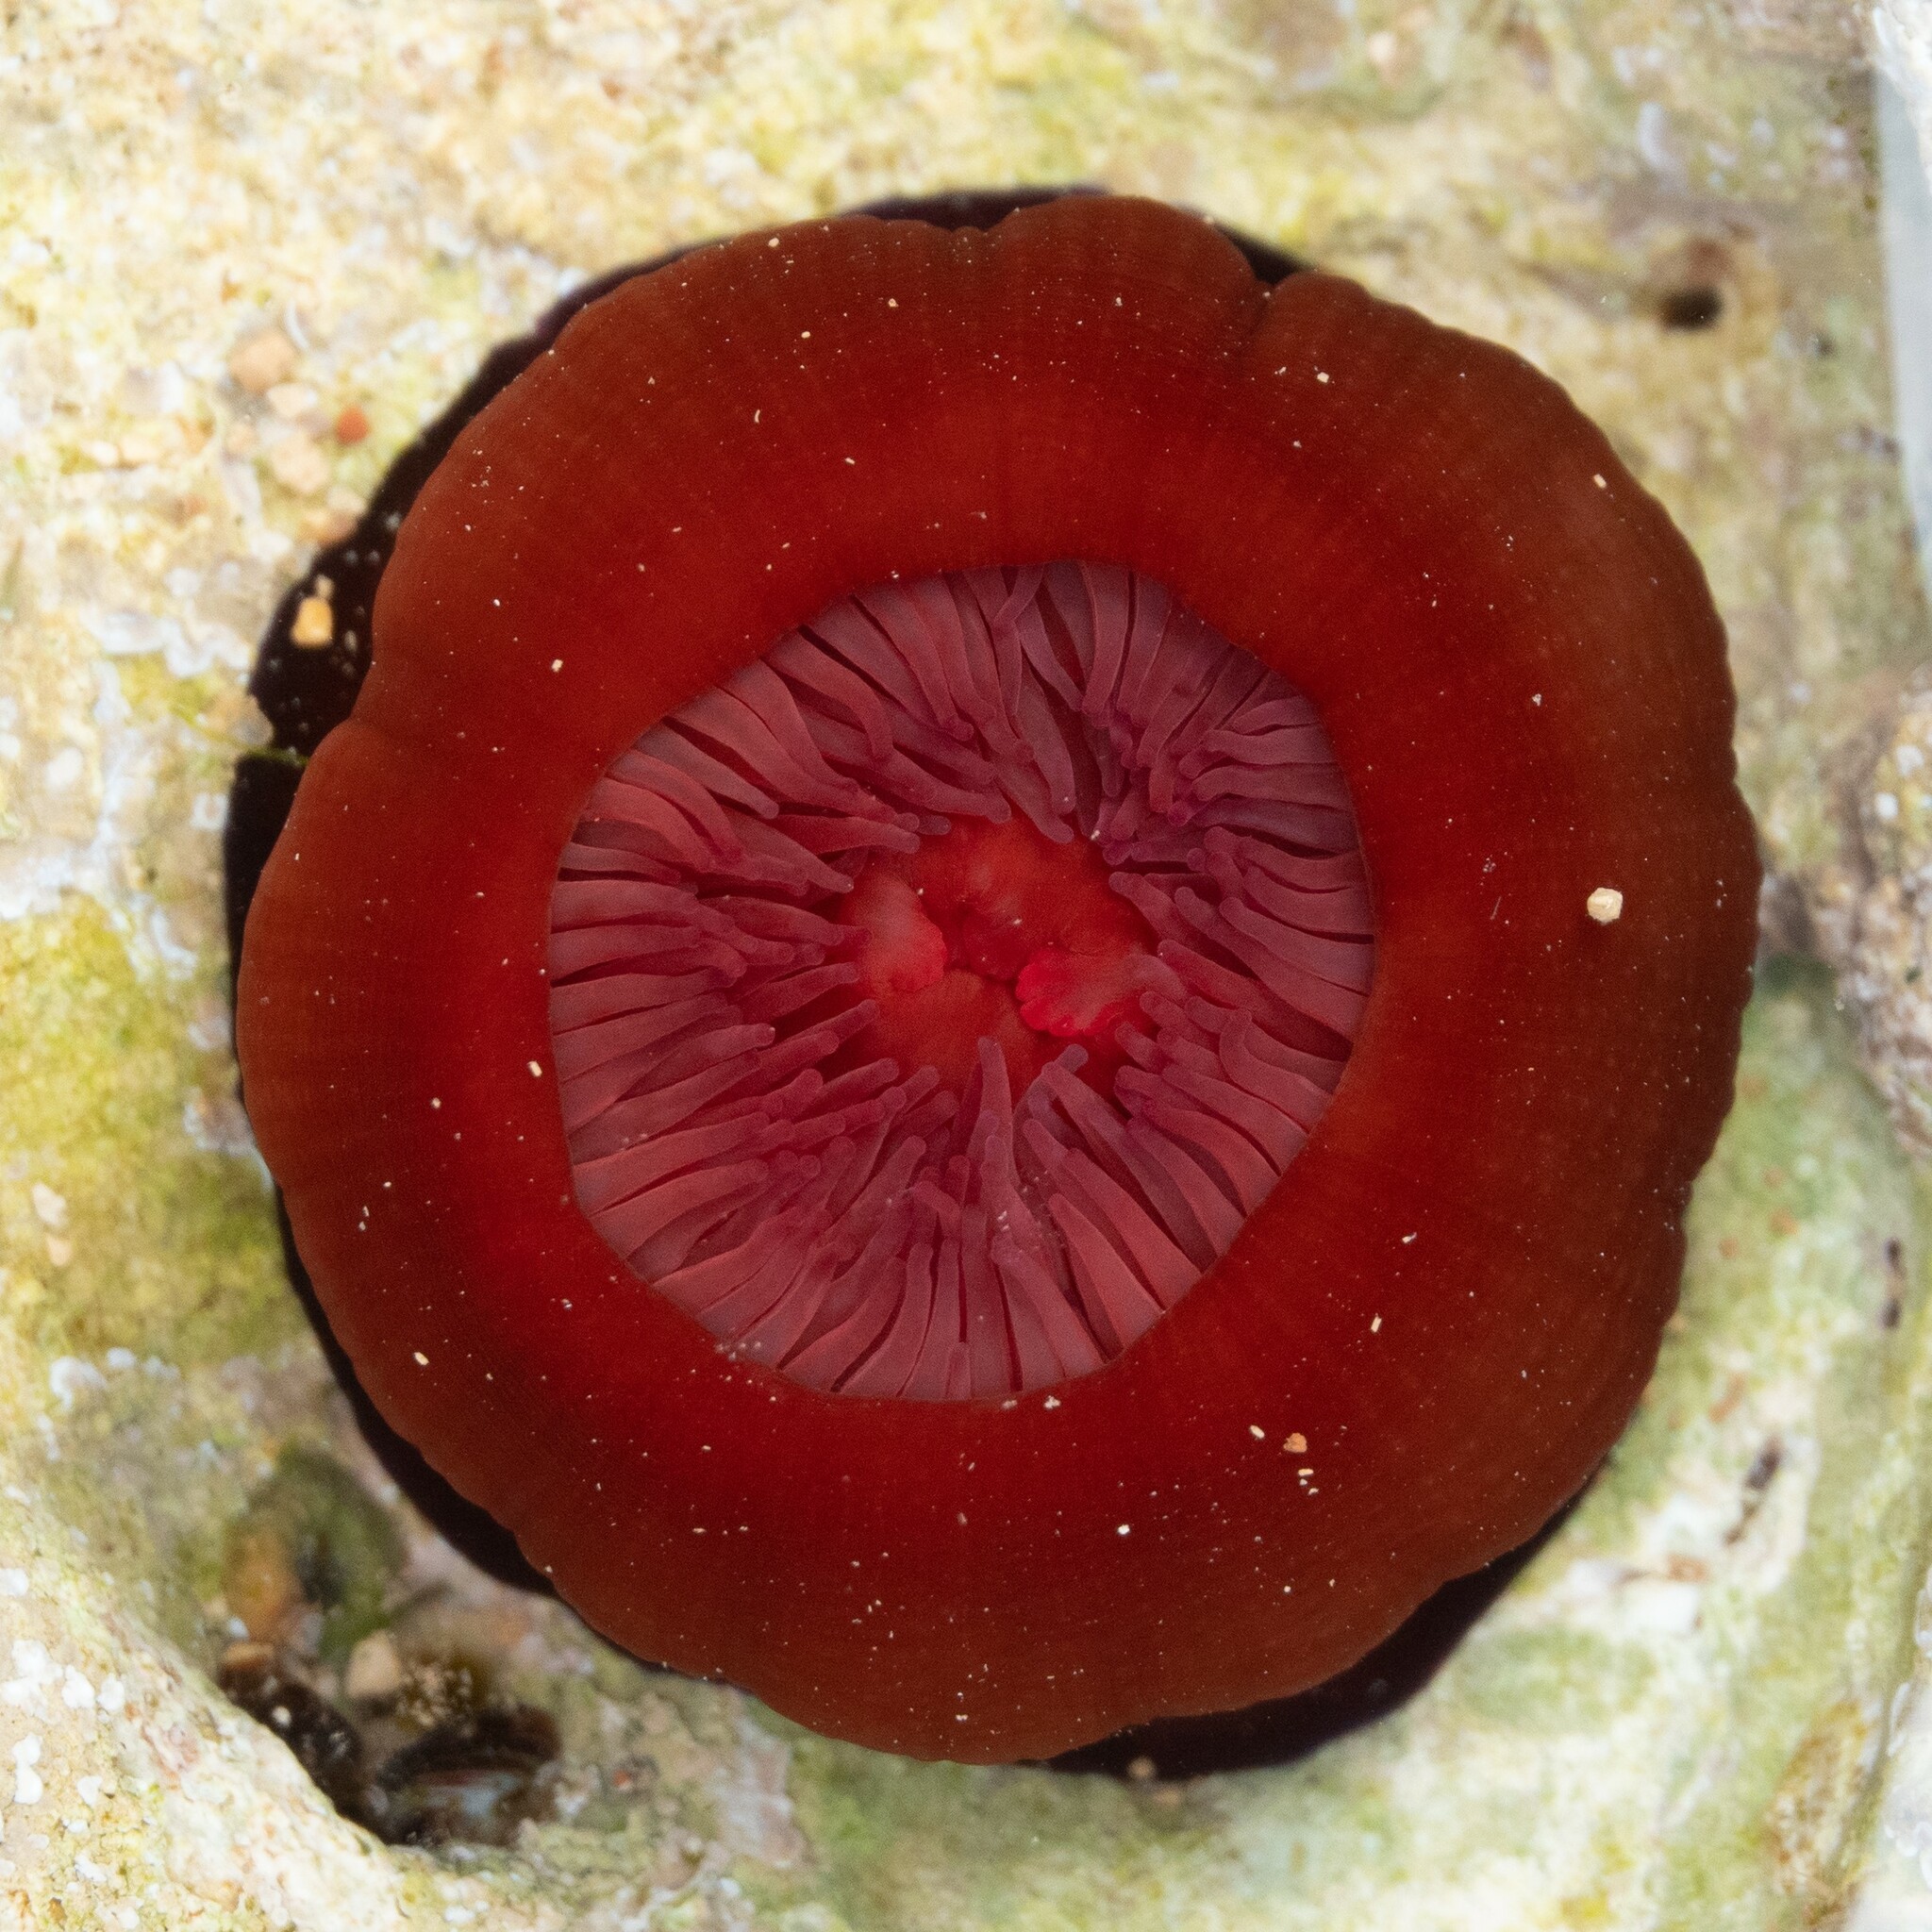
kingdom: Animalia
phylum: Cnidaria
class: Anthozoa
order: Actiniaria
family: Actiniidae
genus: Actinia
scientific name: Actinia mediterranea
